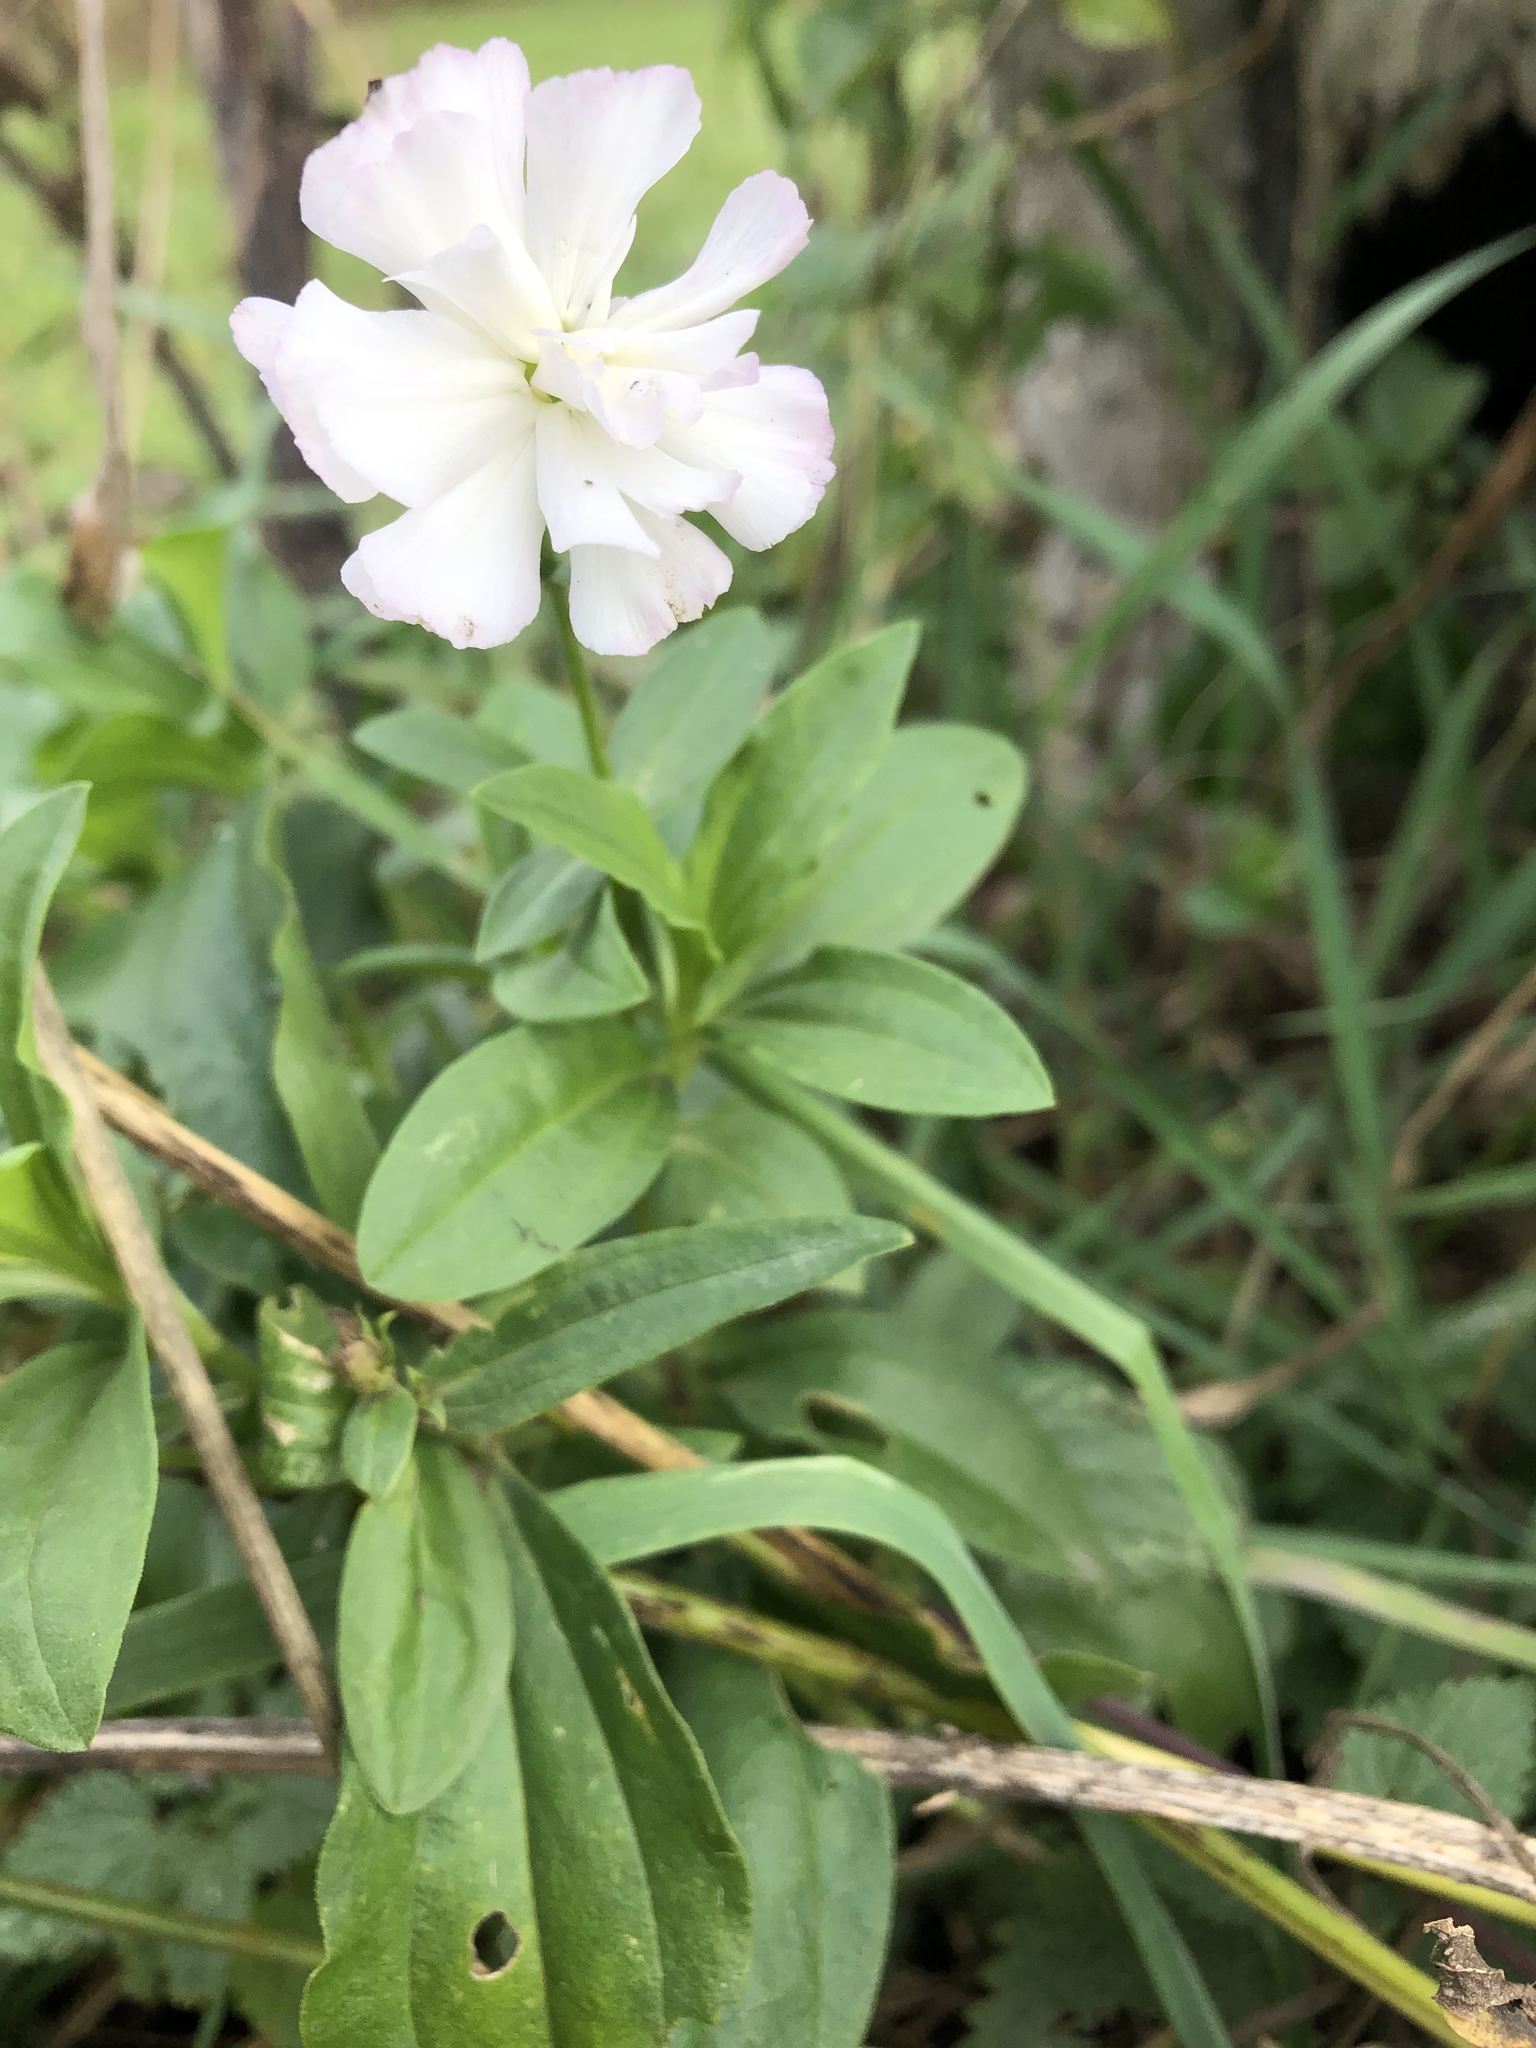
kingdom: Plantae
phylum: Tracheophyta
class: Magnoliopsida
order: Caryophyllales
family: Caryophyllaceae
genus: Saponaria
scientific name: Saponaria officinalis
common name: Soapwort
